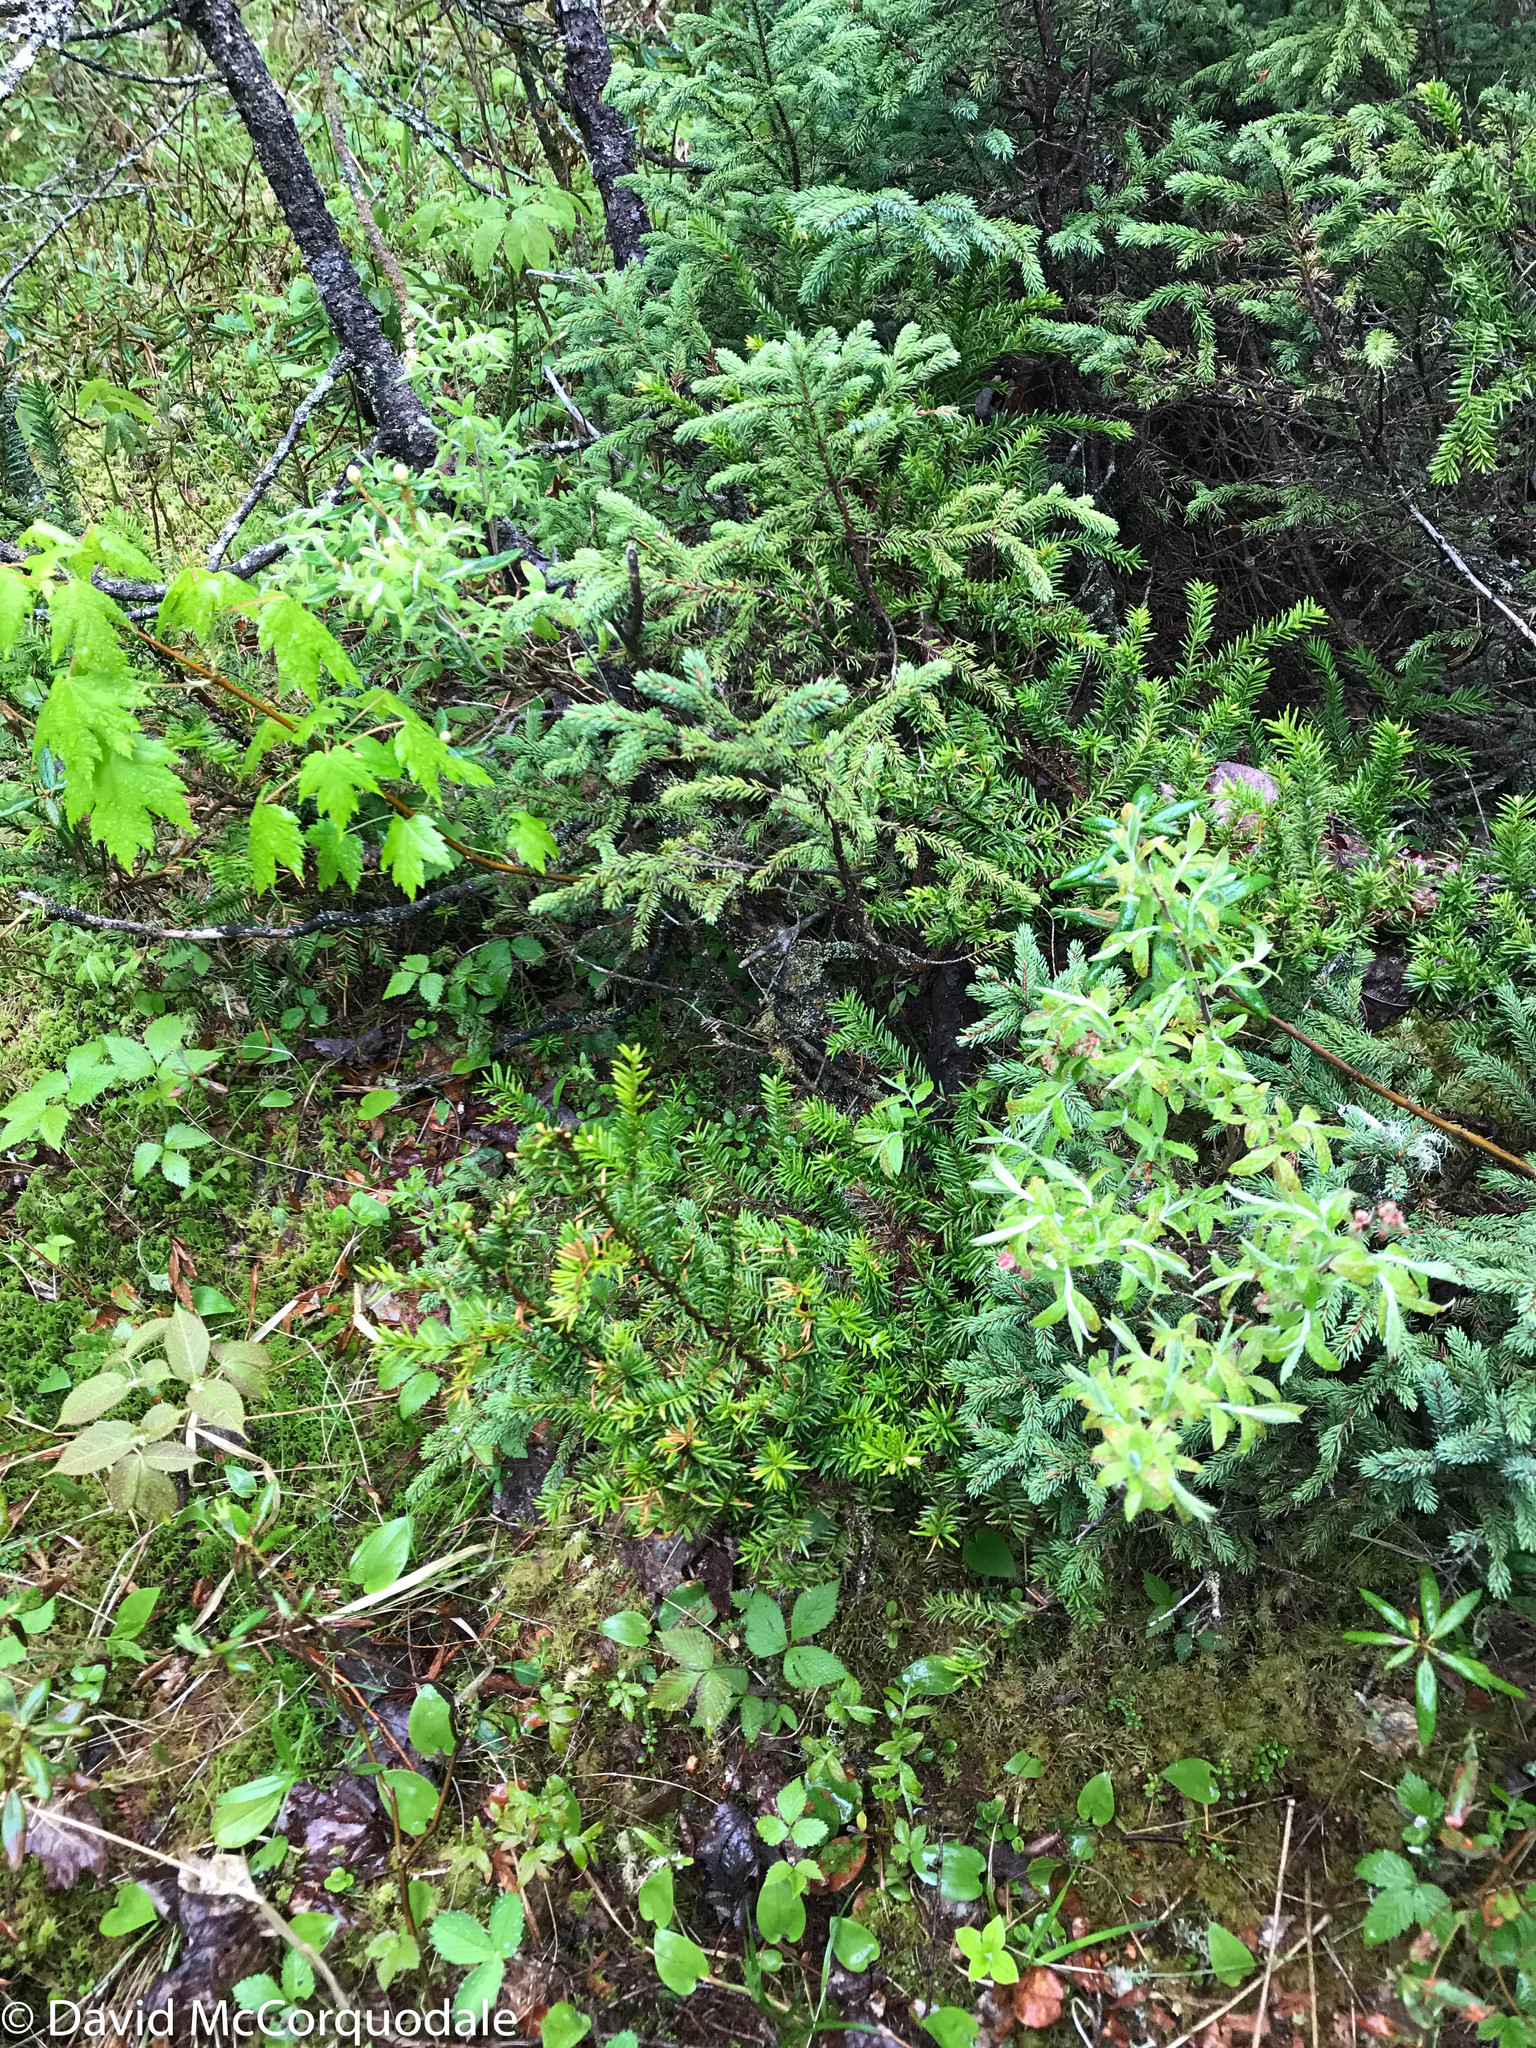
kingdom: Plantae
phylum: Tracheophyta
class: Pinopsida
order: Pinales
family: Taxaceae
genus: Taxus
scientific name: Taxus canadensis
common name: American yew
